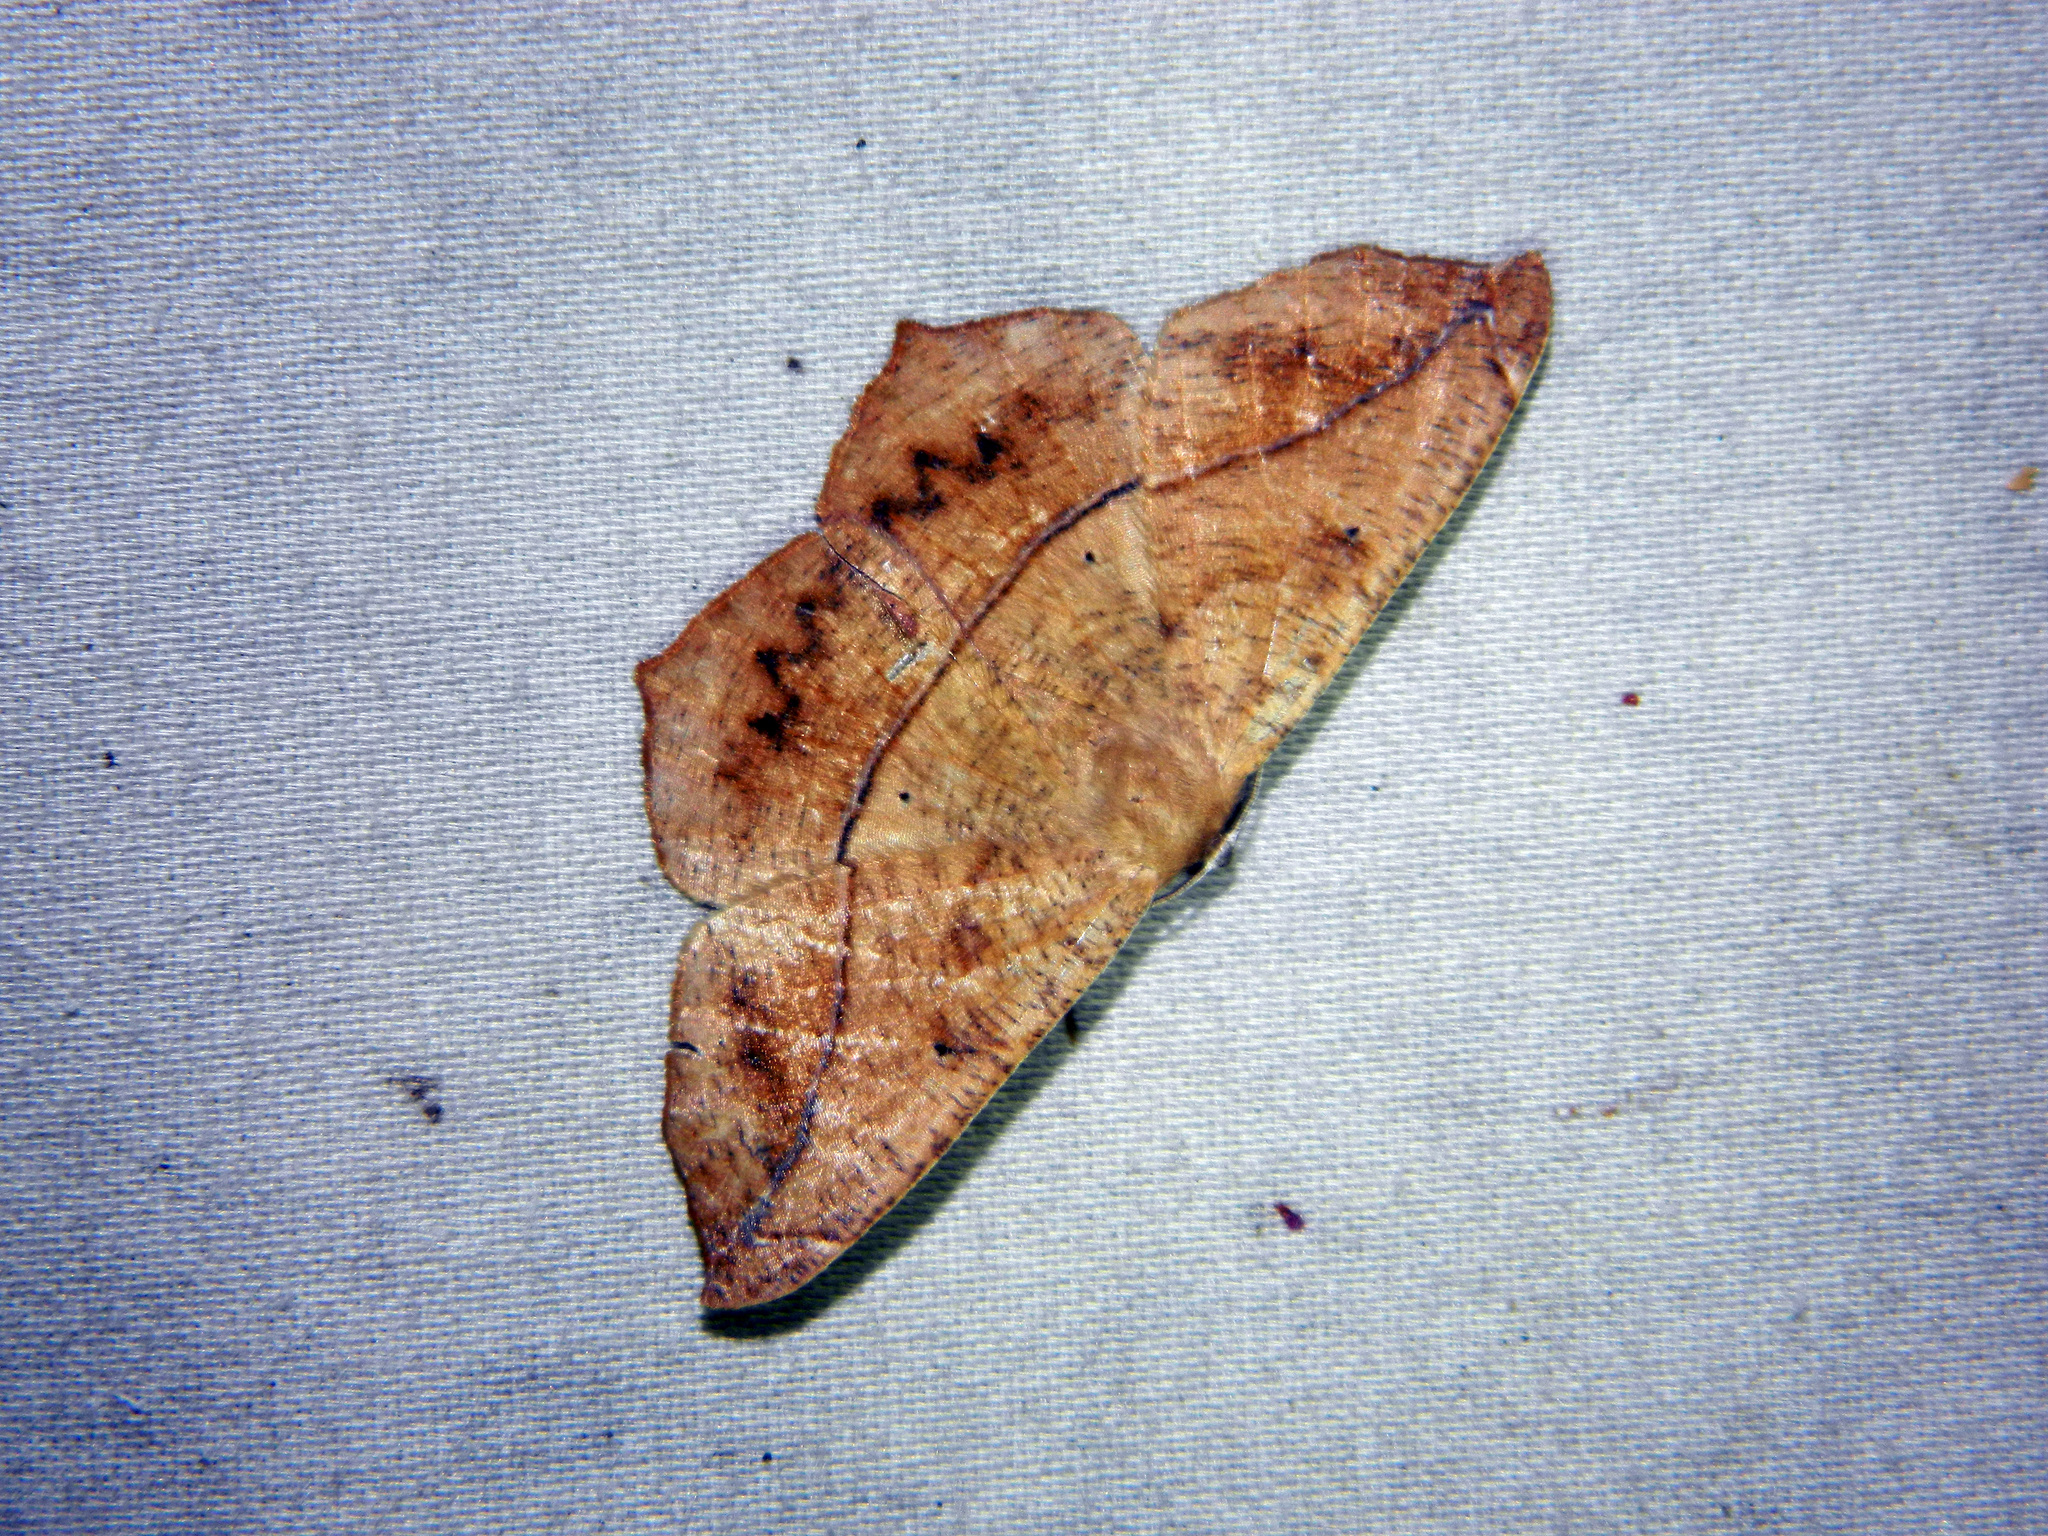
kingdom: Animalia
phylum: Arthropoda
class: Insecta
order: Lepidoptera
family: Geometridae
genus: Prochoerodes
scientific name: Prochoerodes lineola
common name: Large maple spanworm
